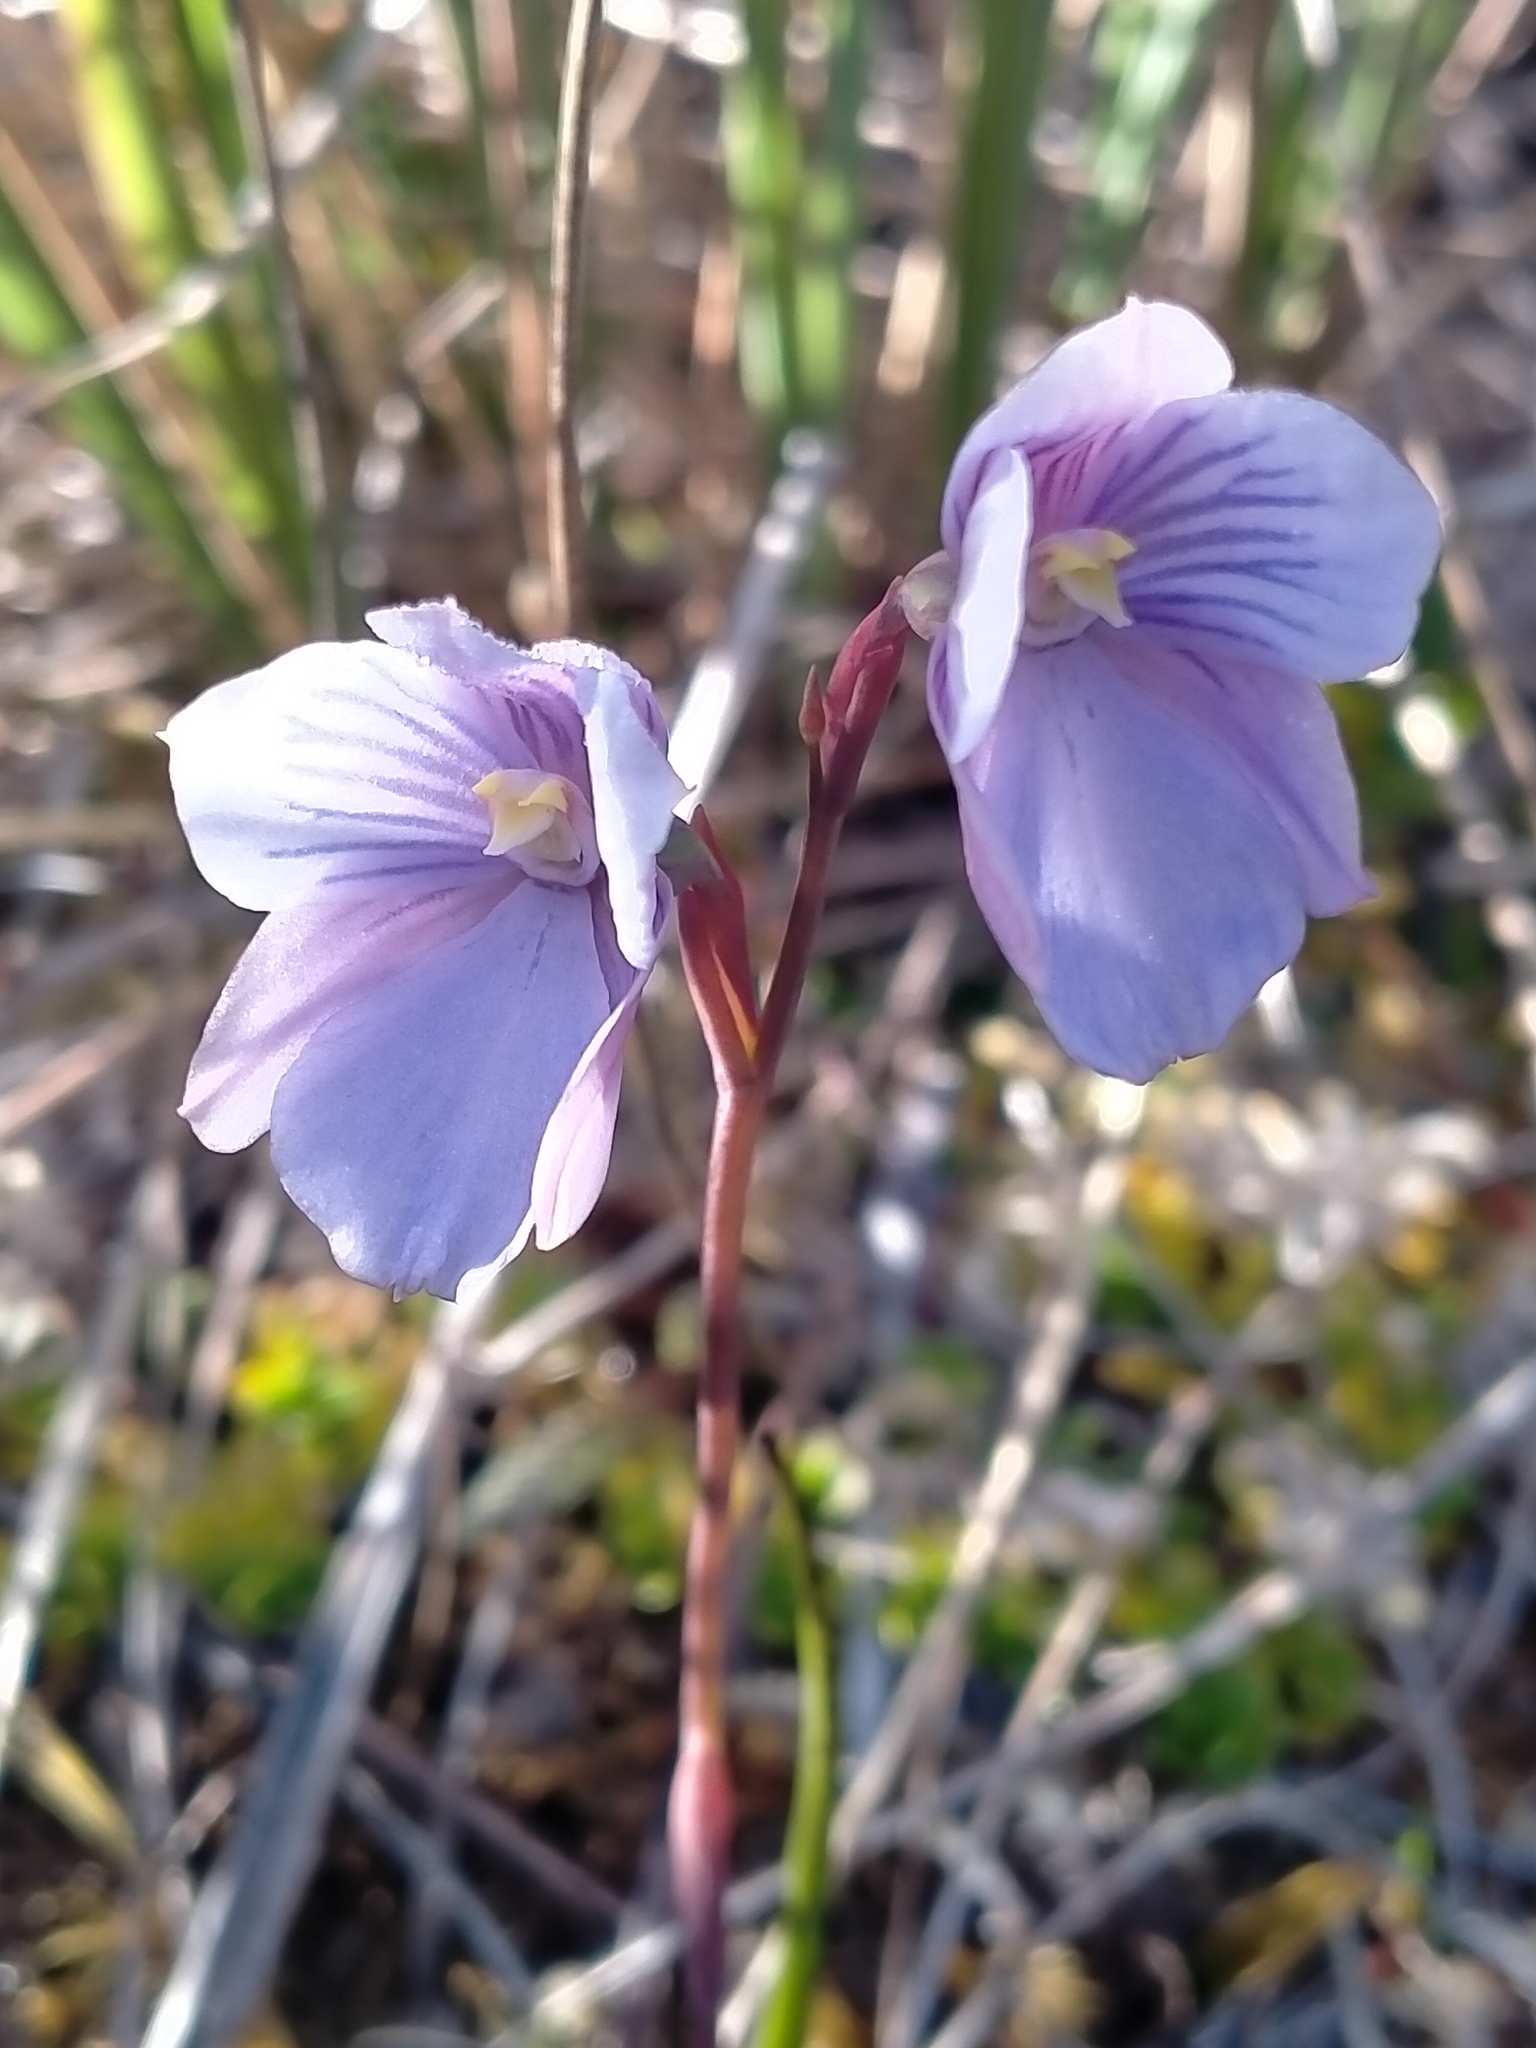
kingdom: Plantae
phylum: Tracheophyta
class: Liliopsida
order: Asparagales
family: Orchidaceae
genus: Thelymitra
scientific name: Thelymitra cyanea
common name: Blue sun-orchid
